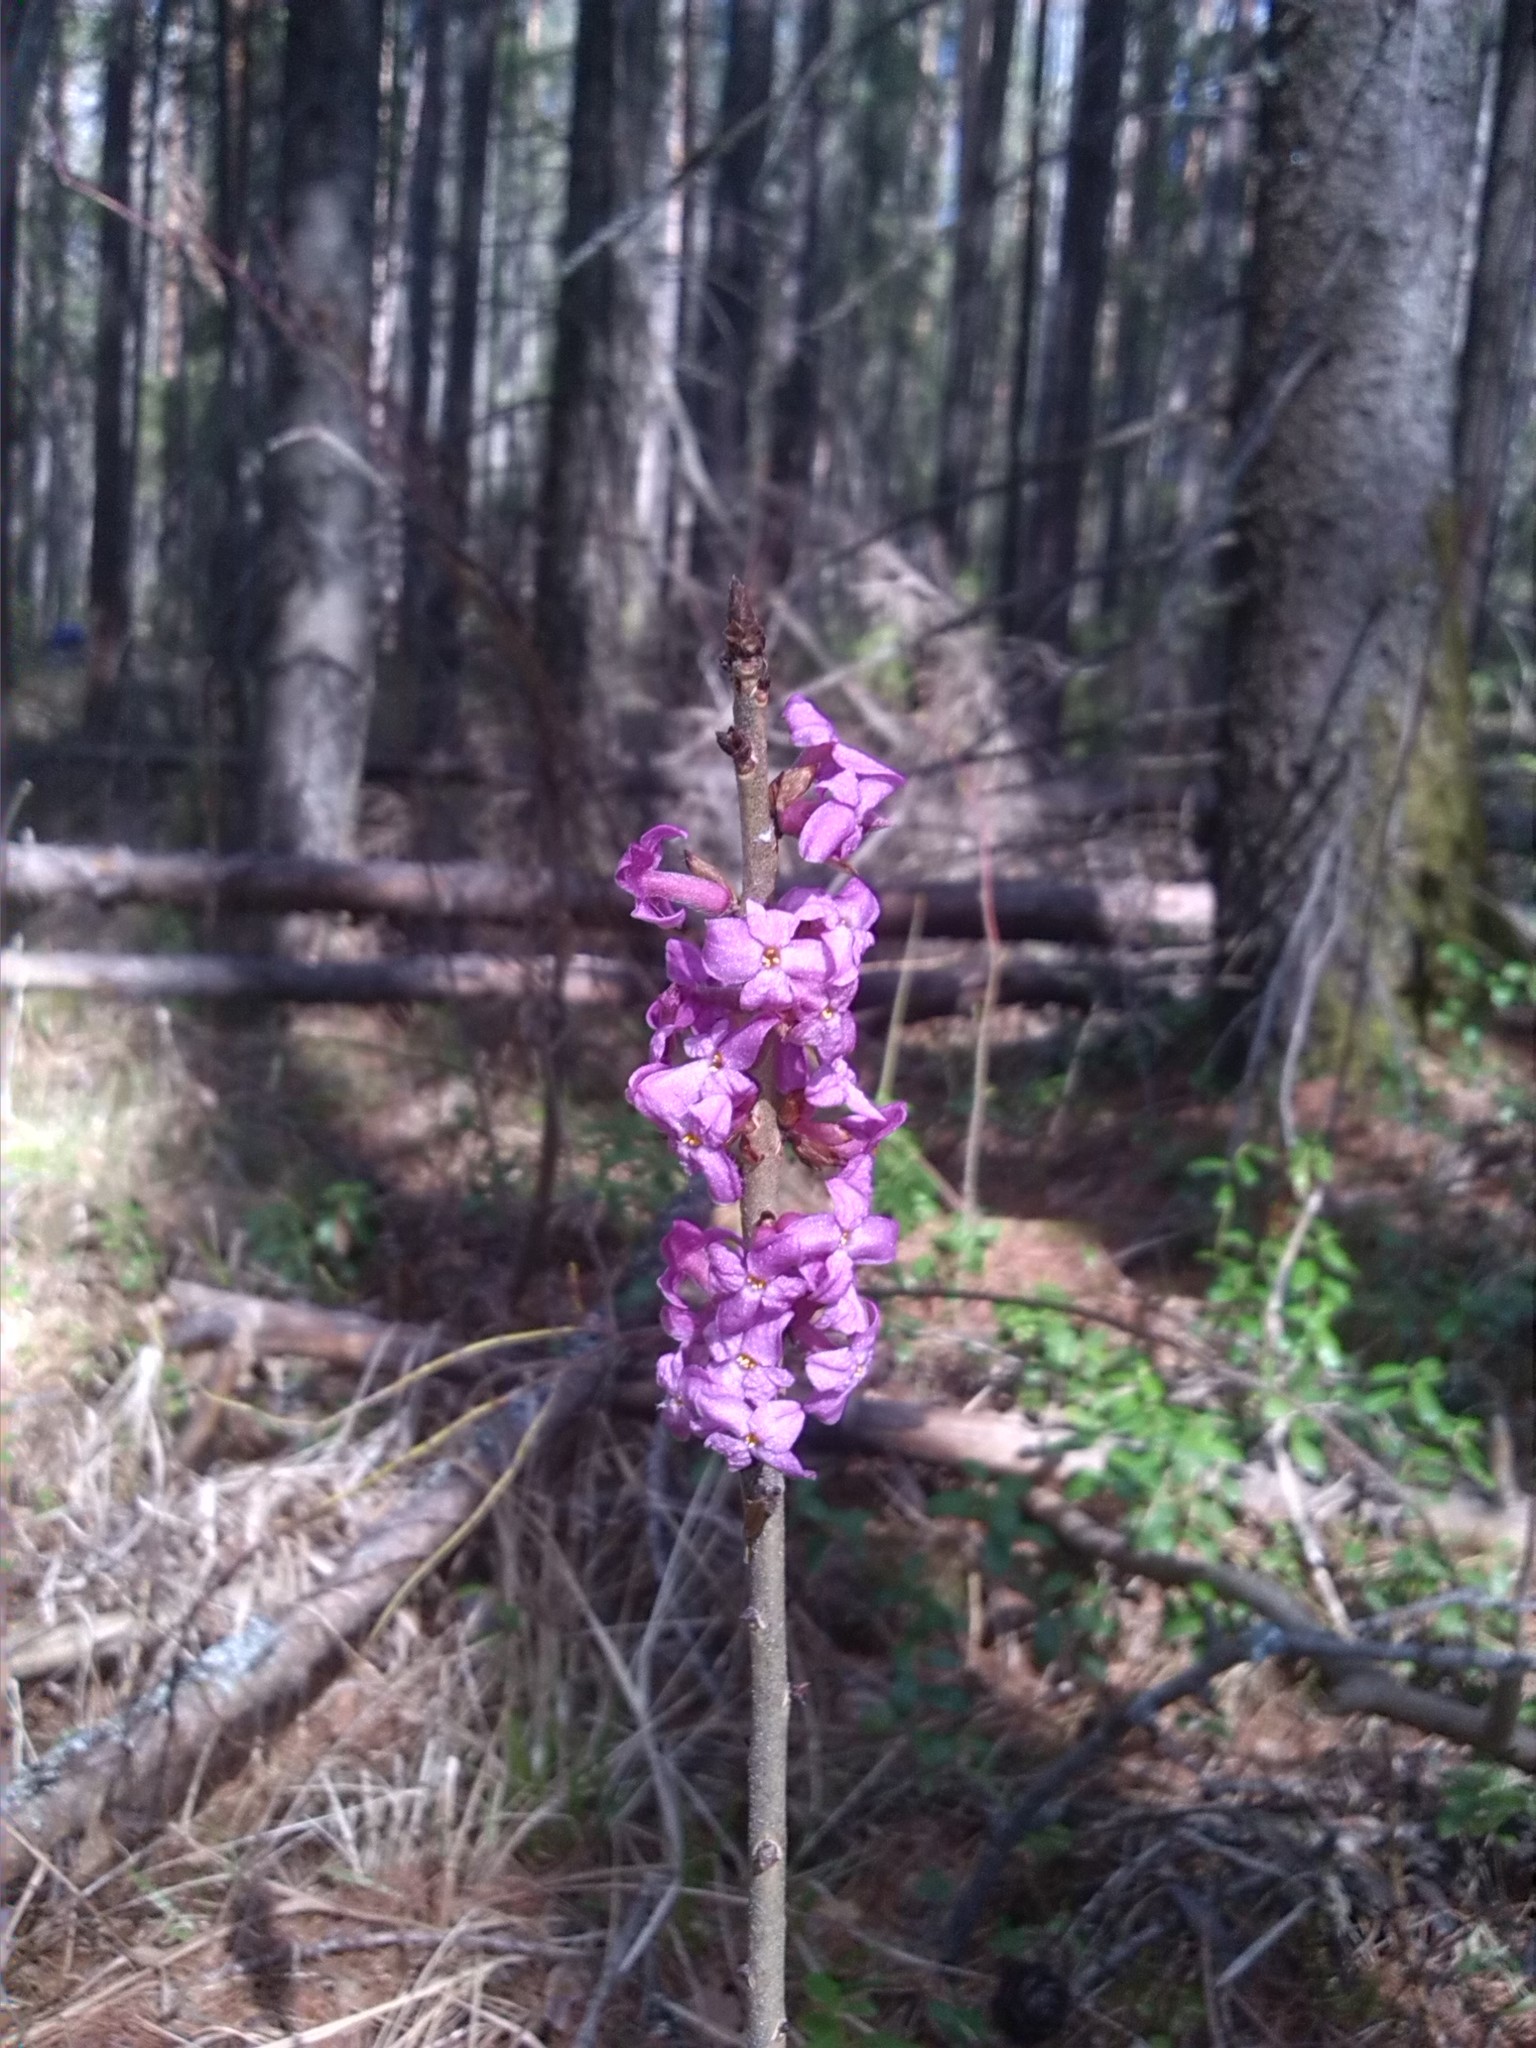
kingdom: Plantae
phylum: Tracheophyta
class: Magnoliopsida
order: Malvales
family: Thymelaeaceae
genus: Daphne
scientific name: Daphne mezereum
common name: Mezereon
